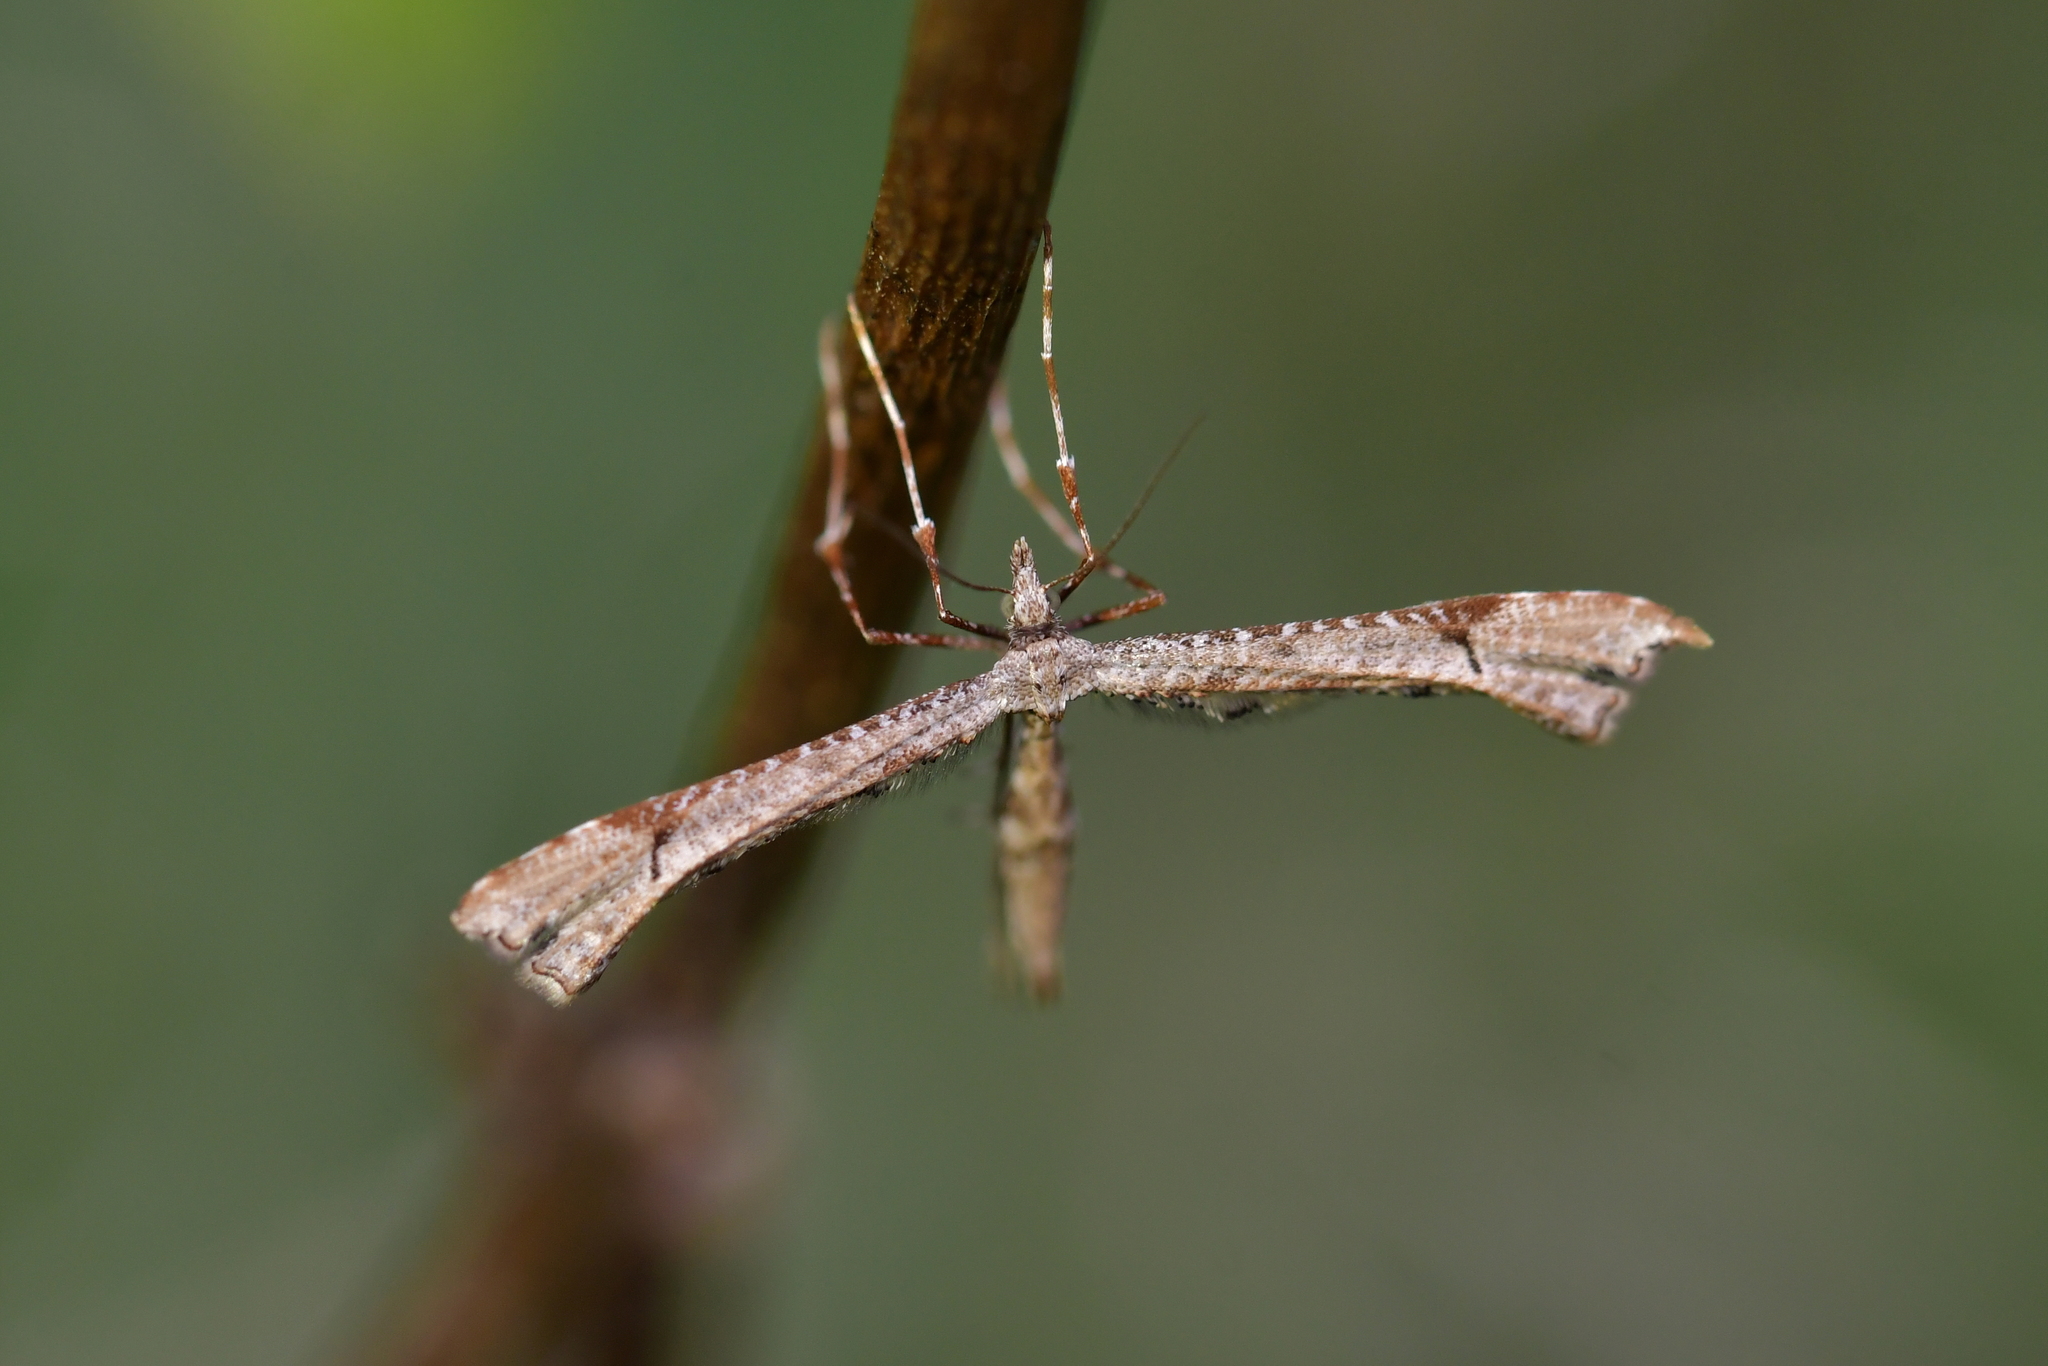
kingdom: Animalia
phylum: Arthropoda
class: Insecta
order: Lepidoptera
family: Pterophoridae
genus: Amblyptilia
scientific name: Amblyptilia repletalis
